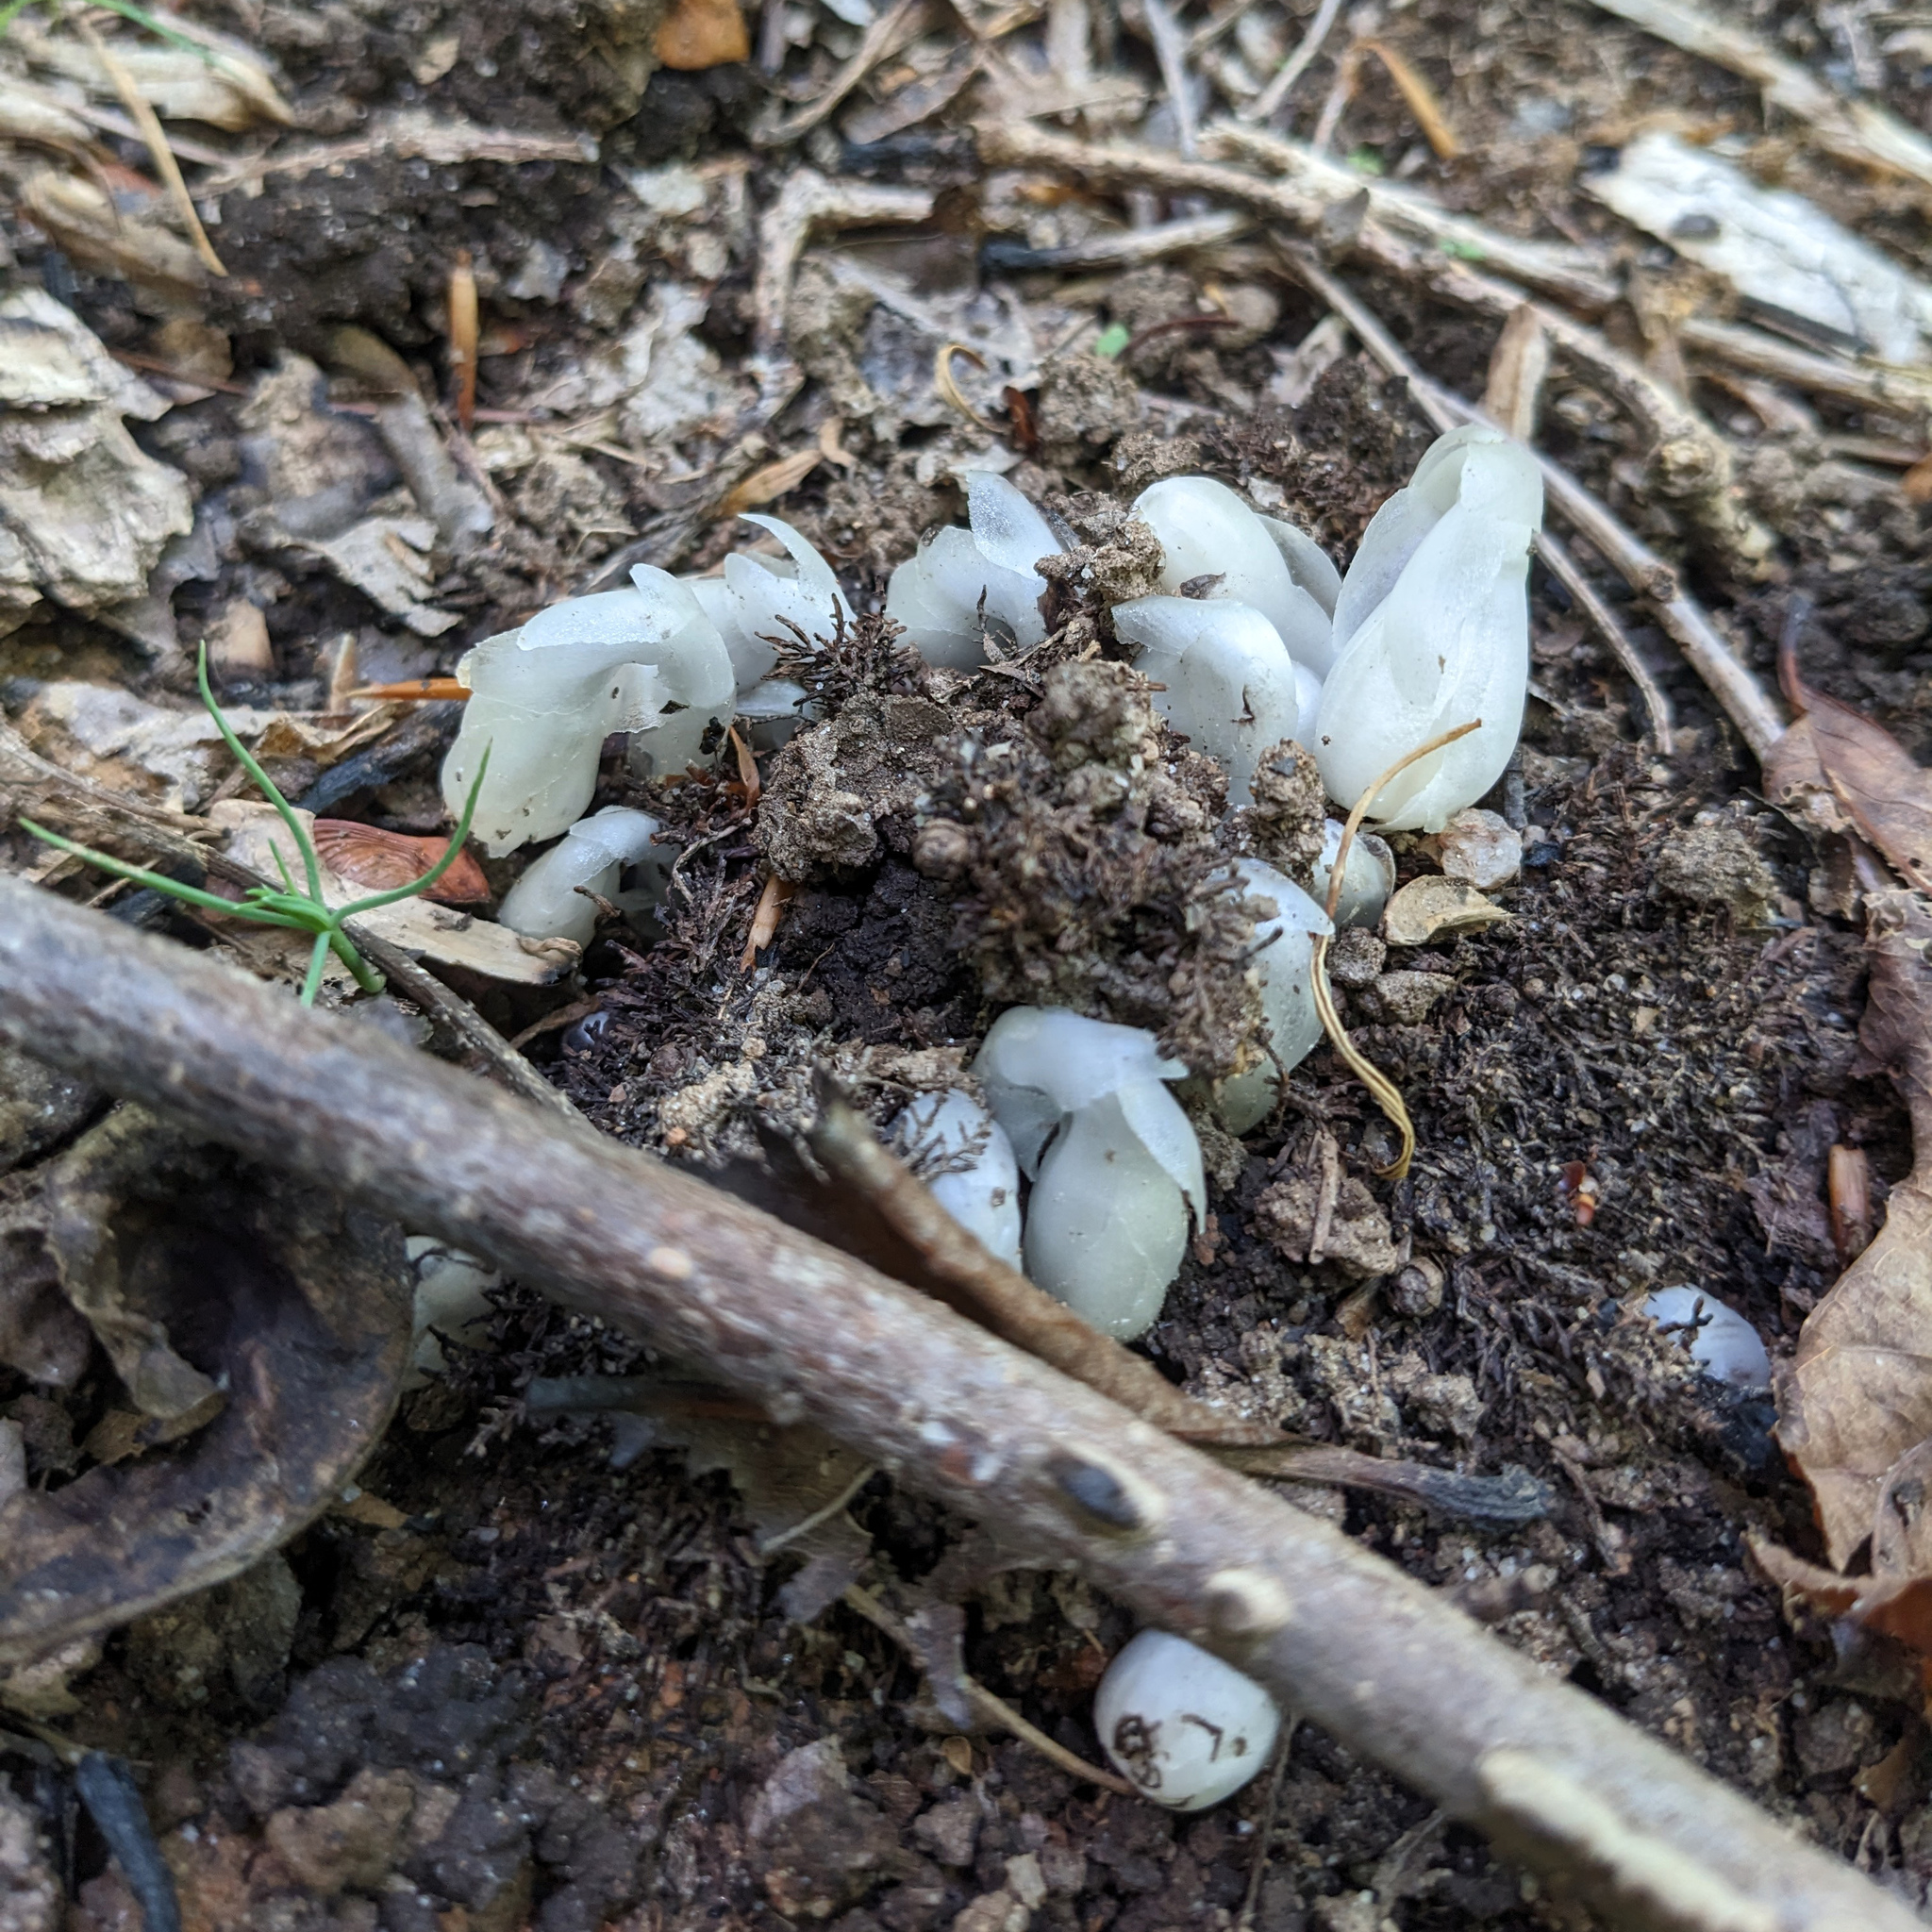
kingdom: Plantae
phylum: Tracheophyta
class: Magnoliopsida
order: Ericales
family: Ericaceae
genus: Monotropa
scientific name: Monotropa uniflora
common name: Convulsion root
